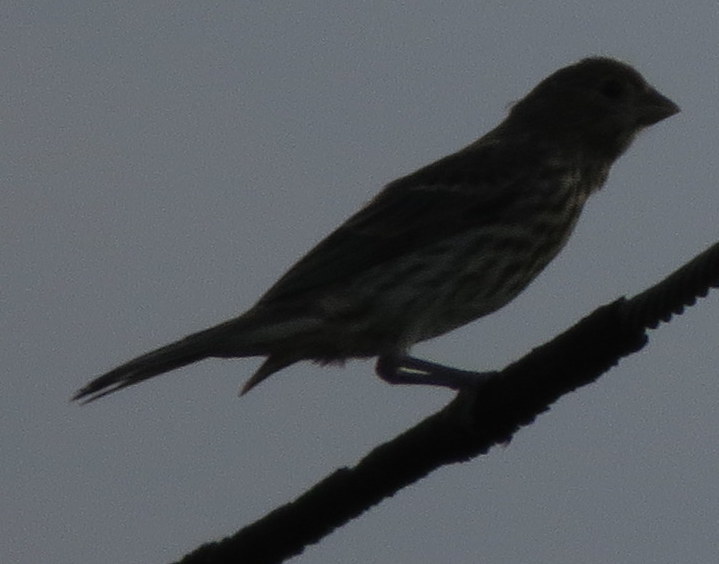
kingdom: Animalia
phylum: Chordata
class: Aves
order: Passeriformes
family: Fringillidae
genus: Haemorhous
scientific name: Haemorhous mexicanus
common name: House finch
